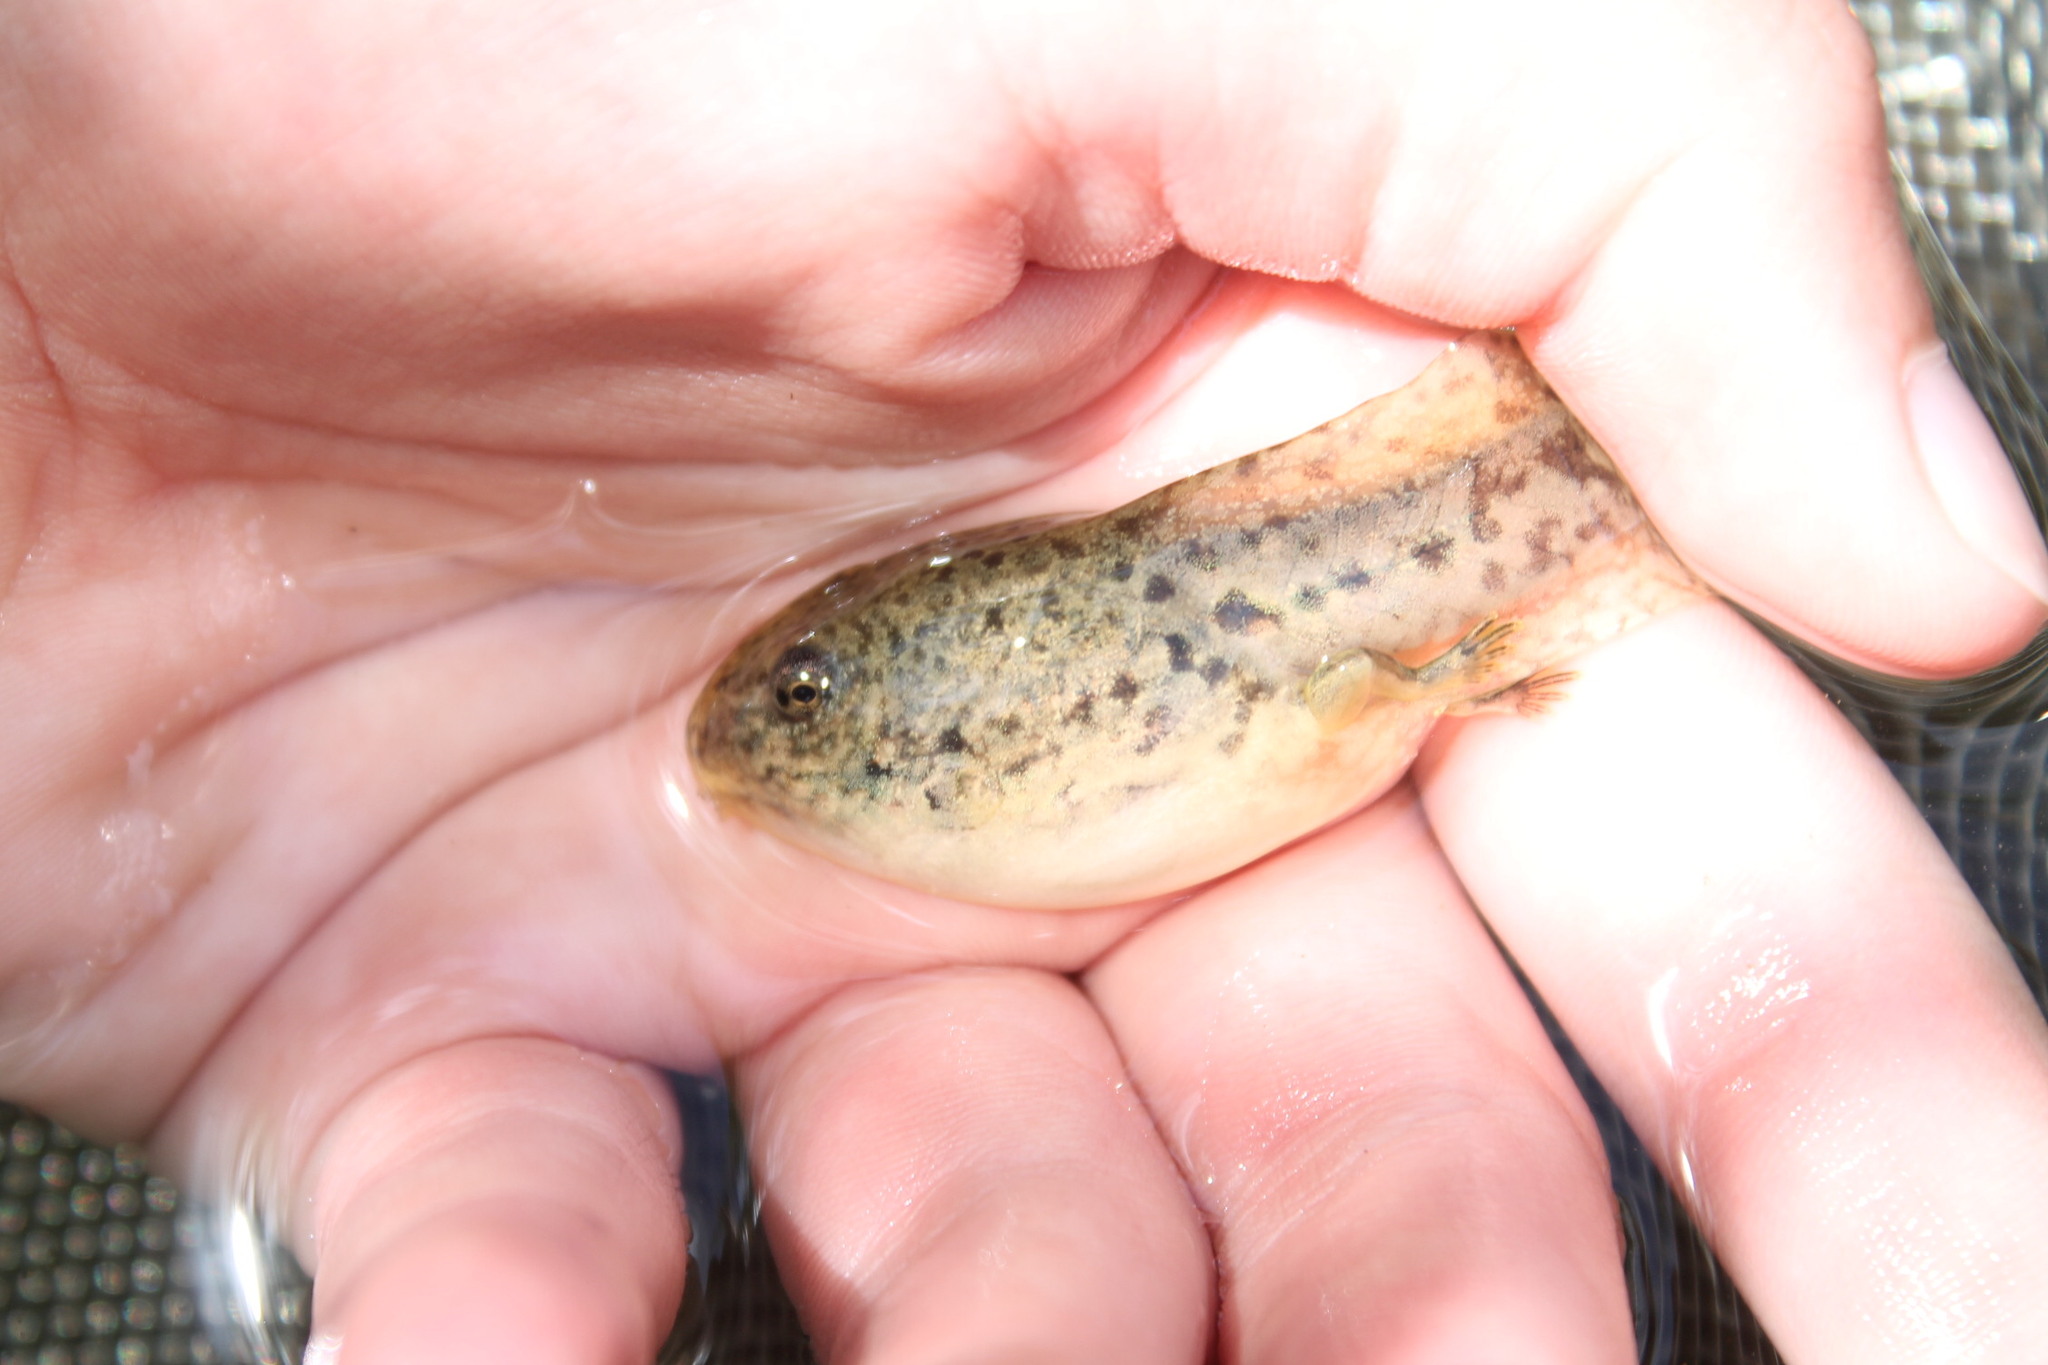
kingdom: Animalia
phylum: Chordata
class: Amphibia
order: Anura
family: Ranidae
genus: Lithobates
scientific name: Lithobates catesbeianus
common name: American bullfrog
